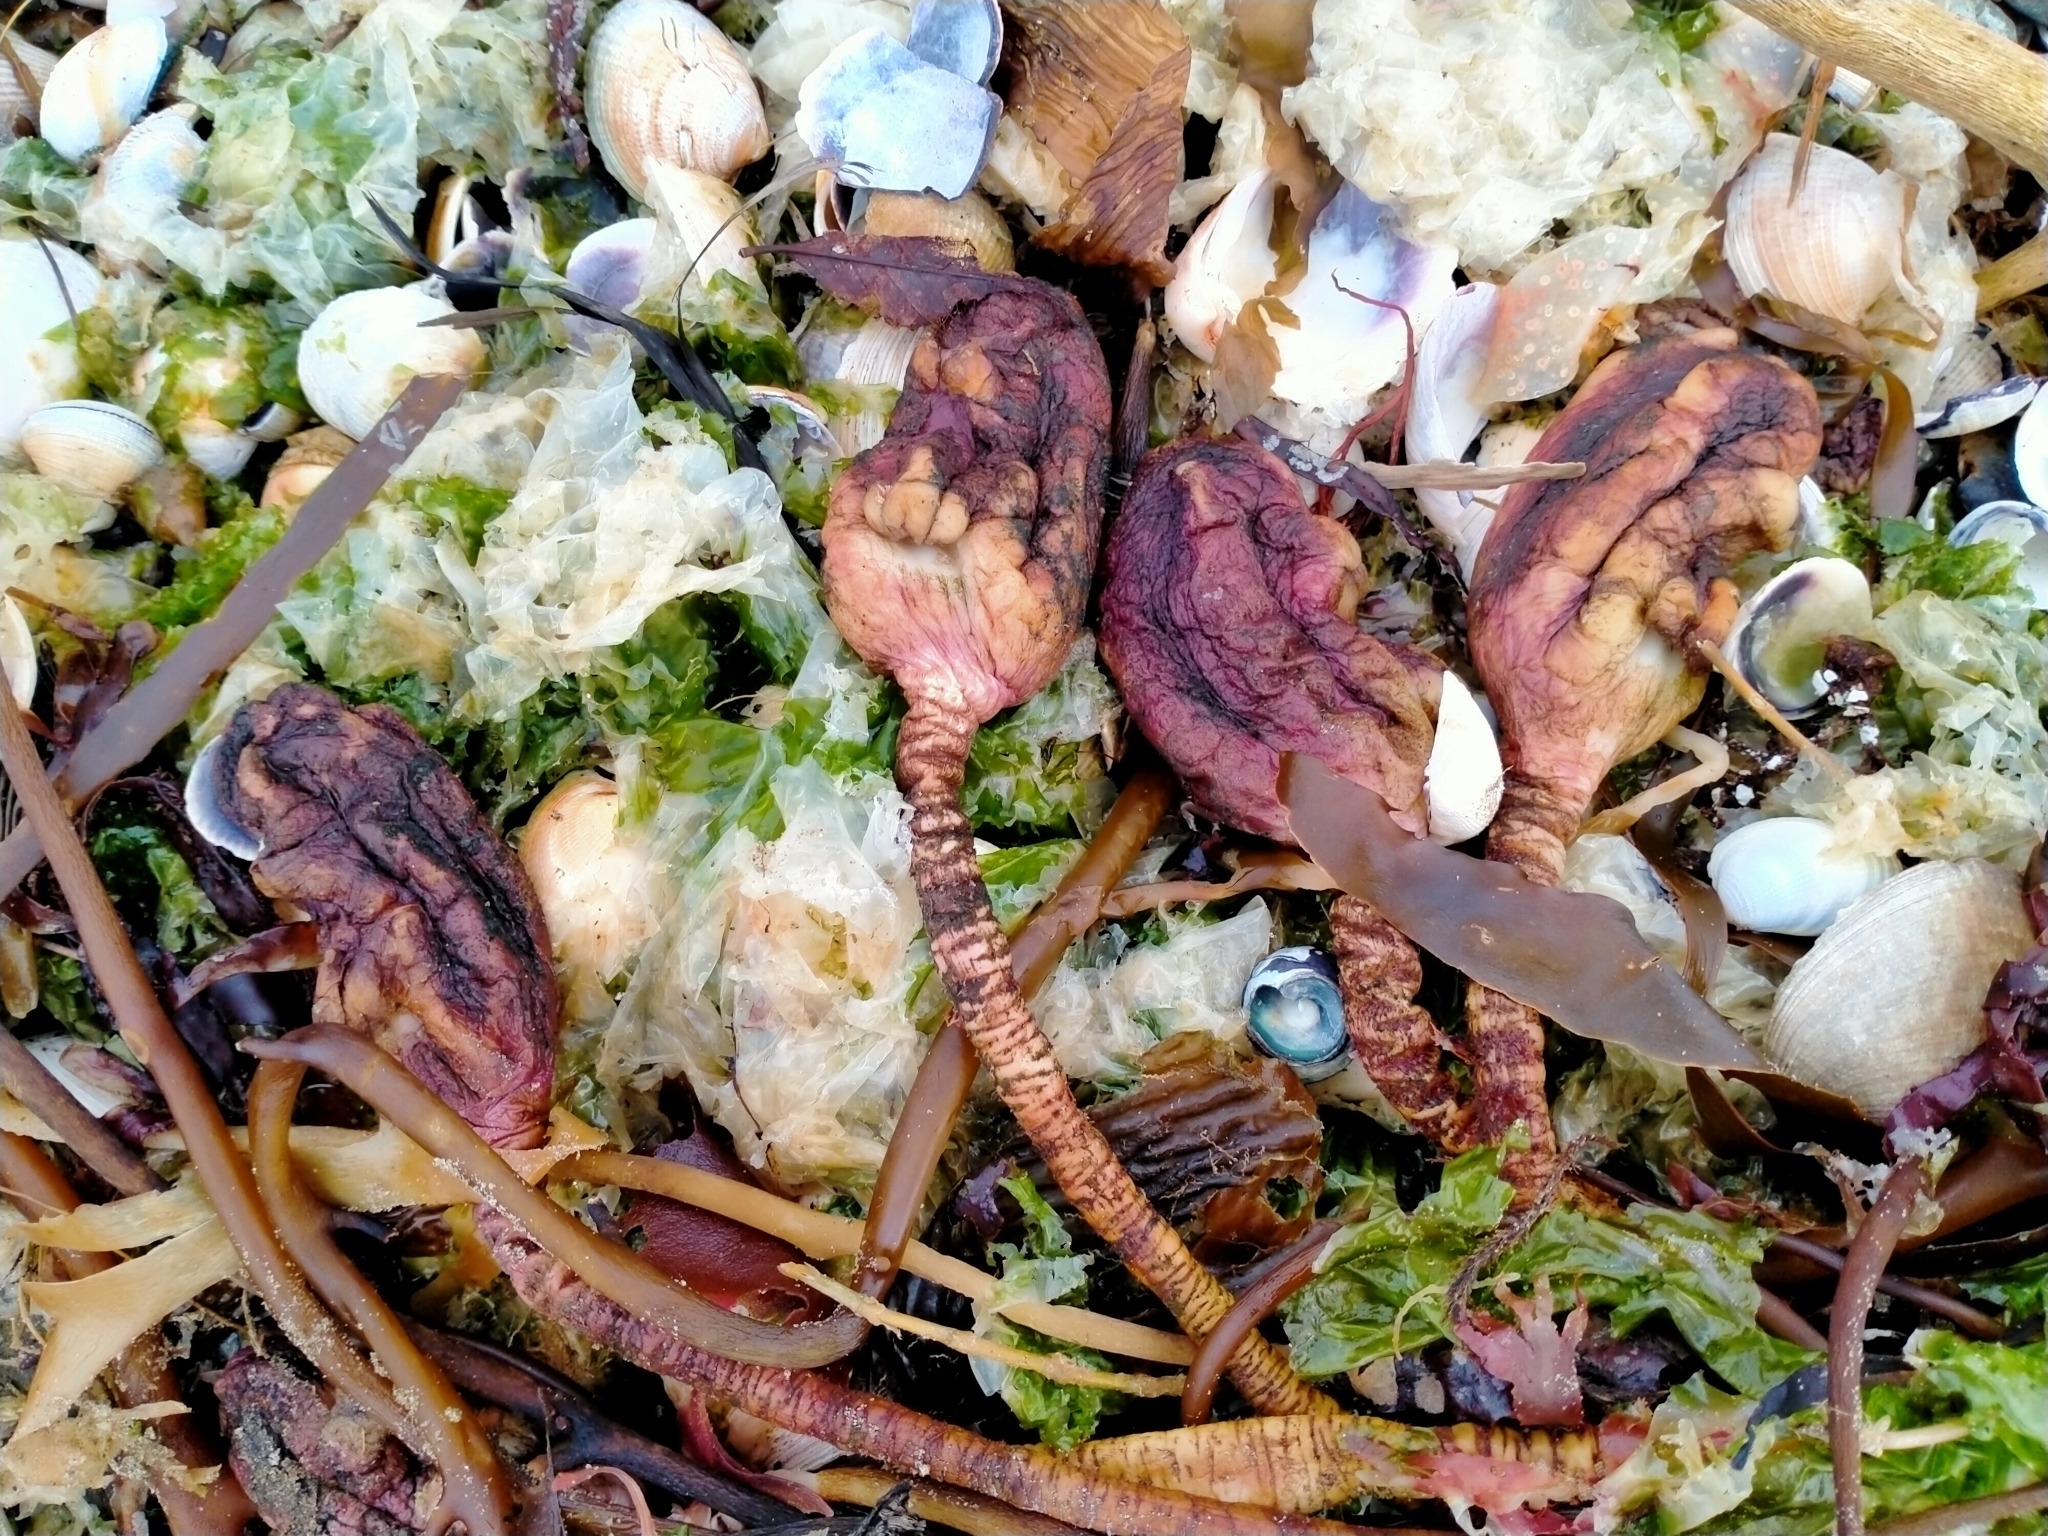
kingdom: Animalia
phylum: Chordata
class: Ascidiacea
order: Stolidobranchia
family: Pyuridae
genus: Pyura
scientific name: Pyura pachydermatina
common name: Sea tulip
